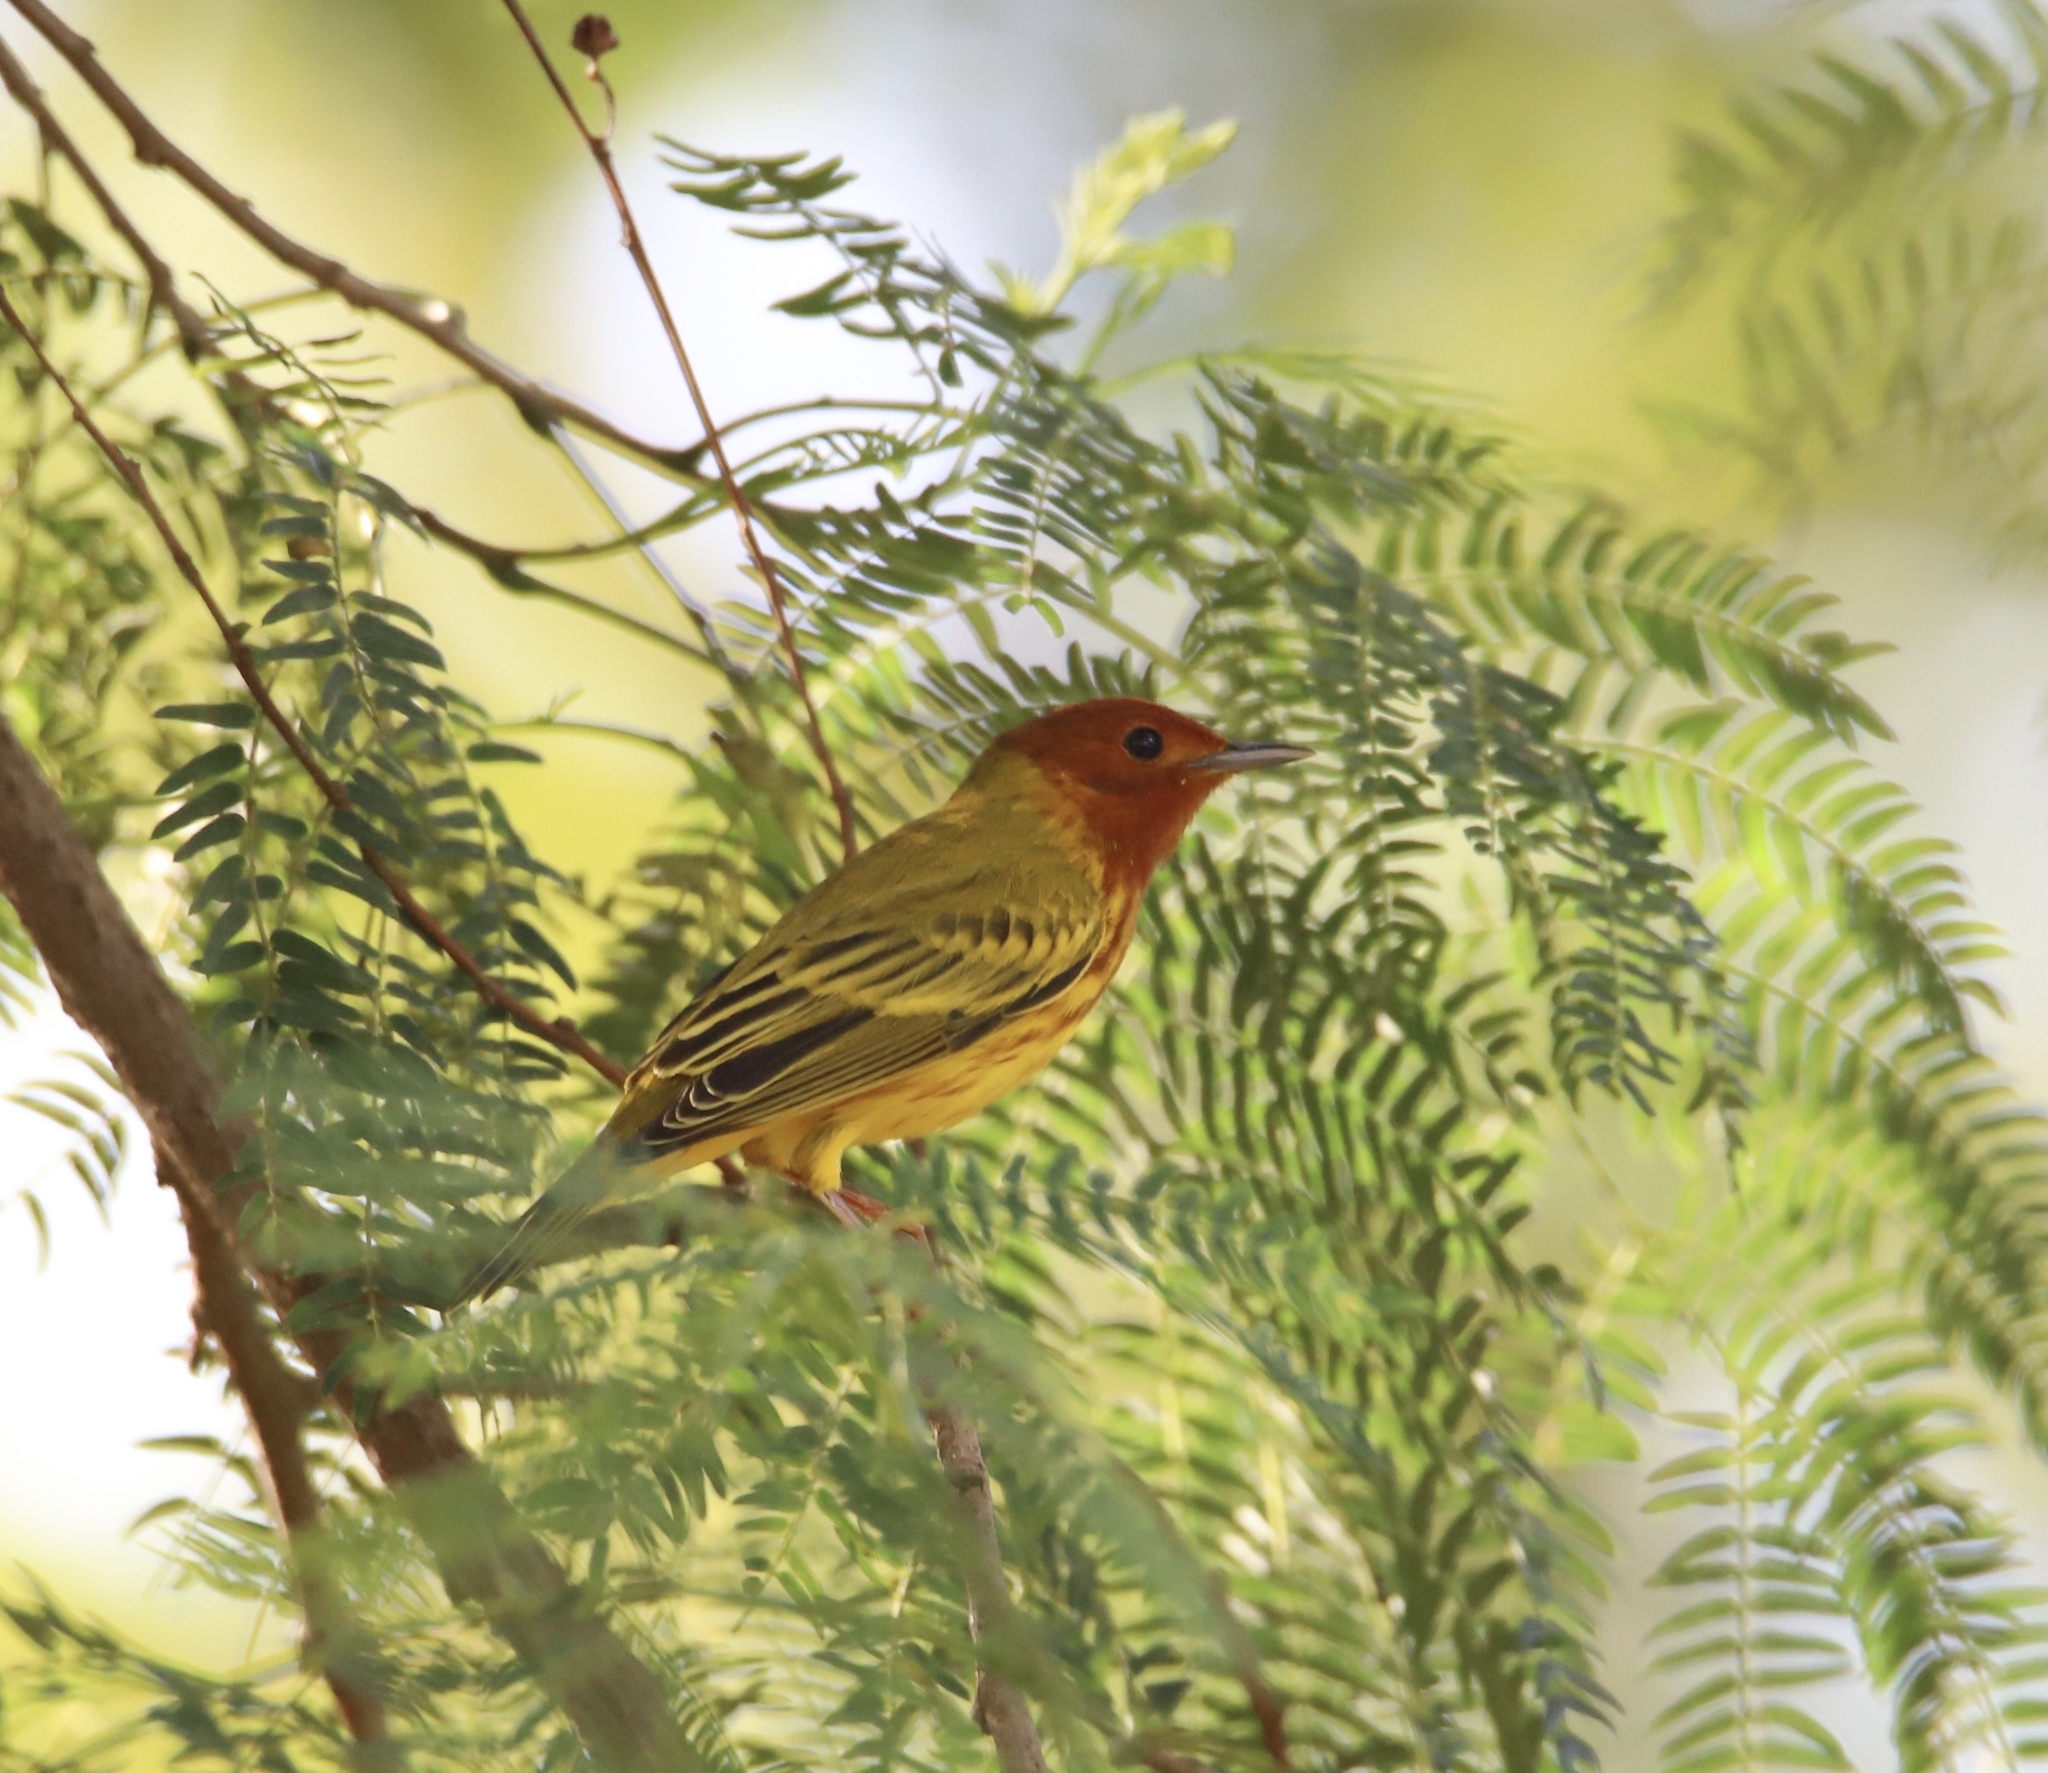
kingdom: Animalia
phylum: Chordata
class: Aves
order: Passeriformes
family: Parulidae
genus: Setophaga
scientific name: Setophaga petechia
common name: Yellow warbler
